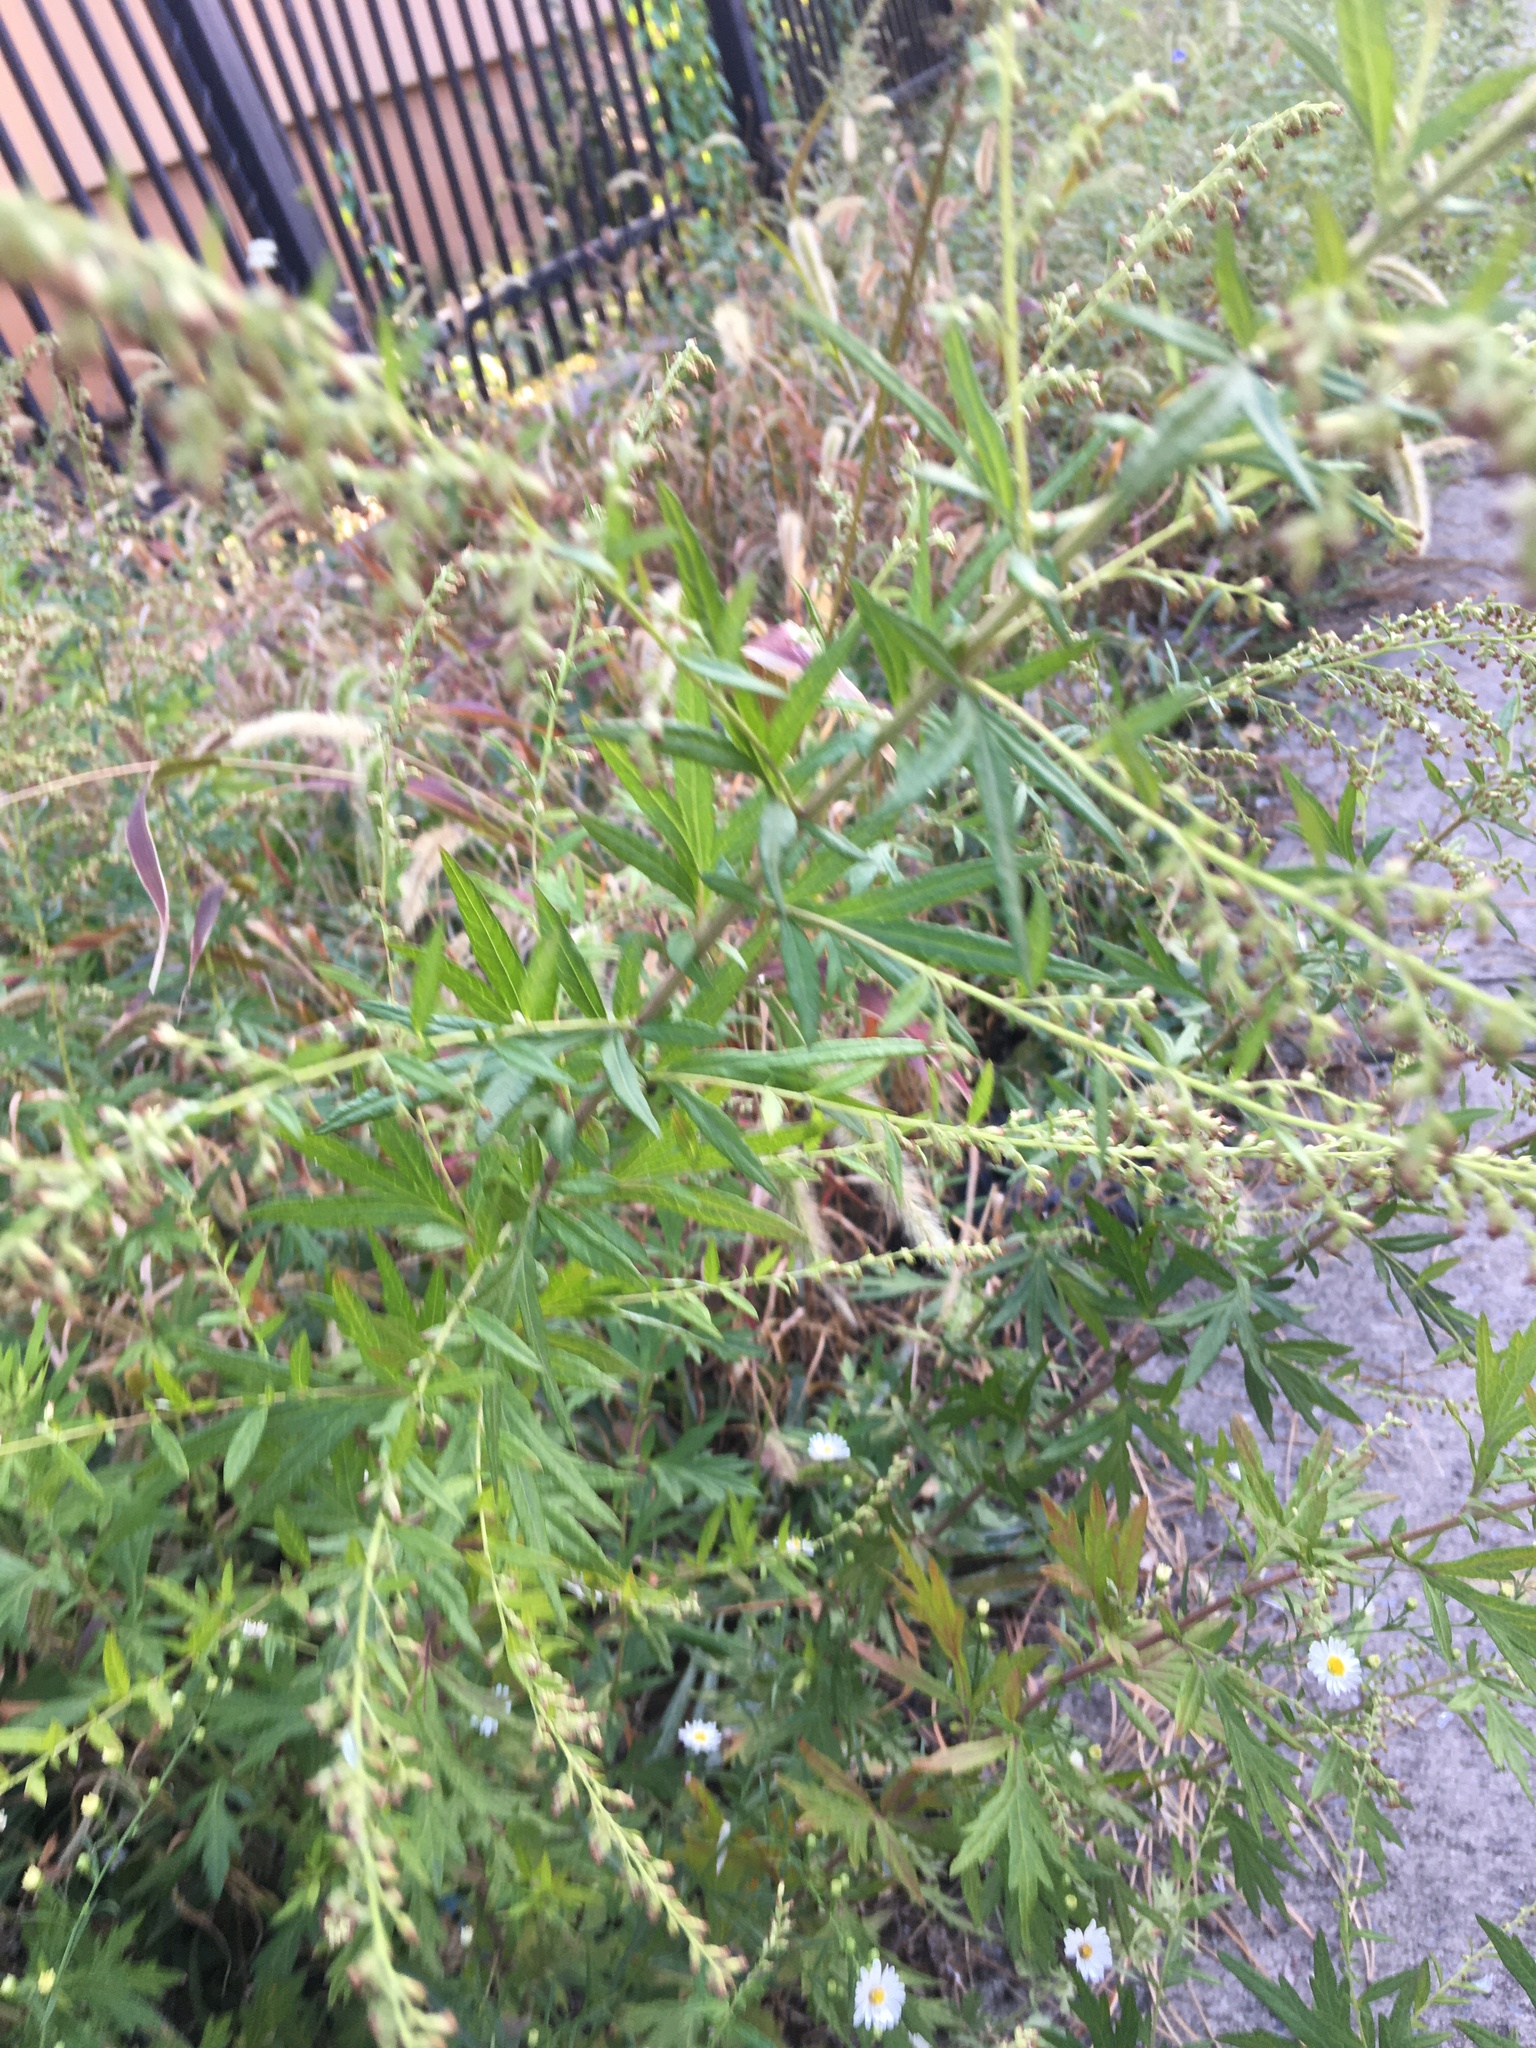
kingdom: Plantae
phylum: Tracheophyta
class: Magnoliopsida
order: Asterales
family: Asteraceae
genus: Artemisia
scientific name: Artemisia vulgaris
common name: Mugwort
